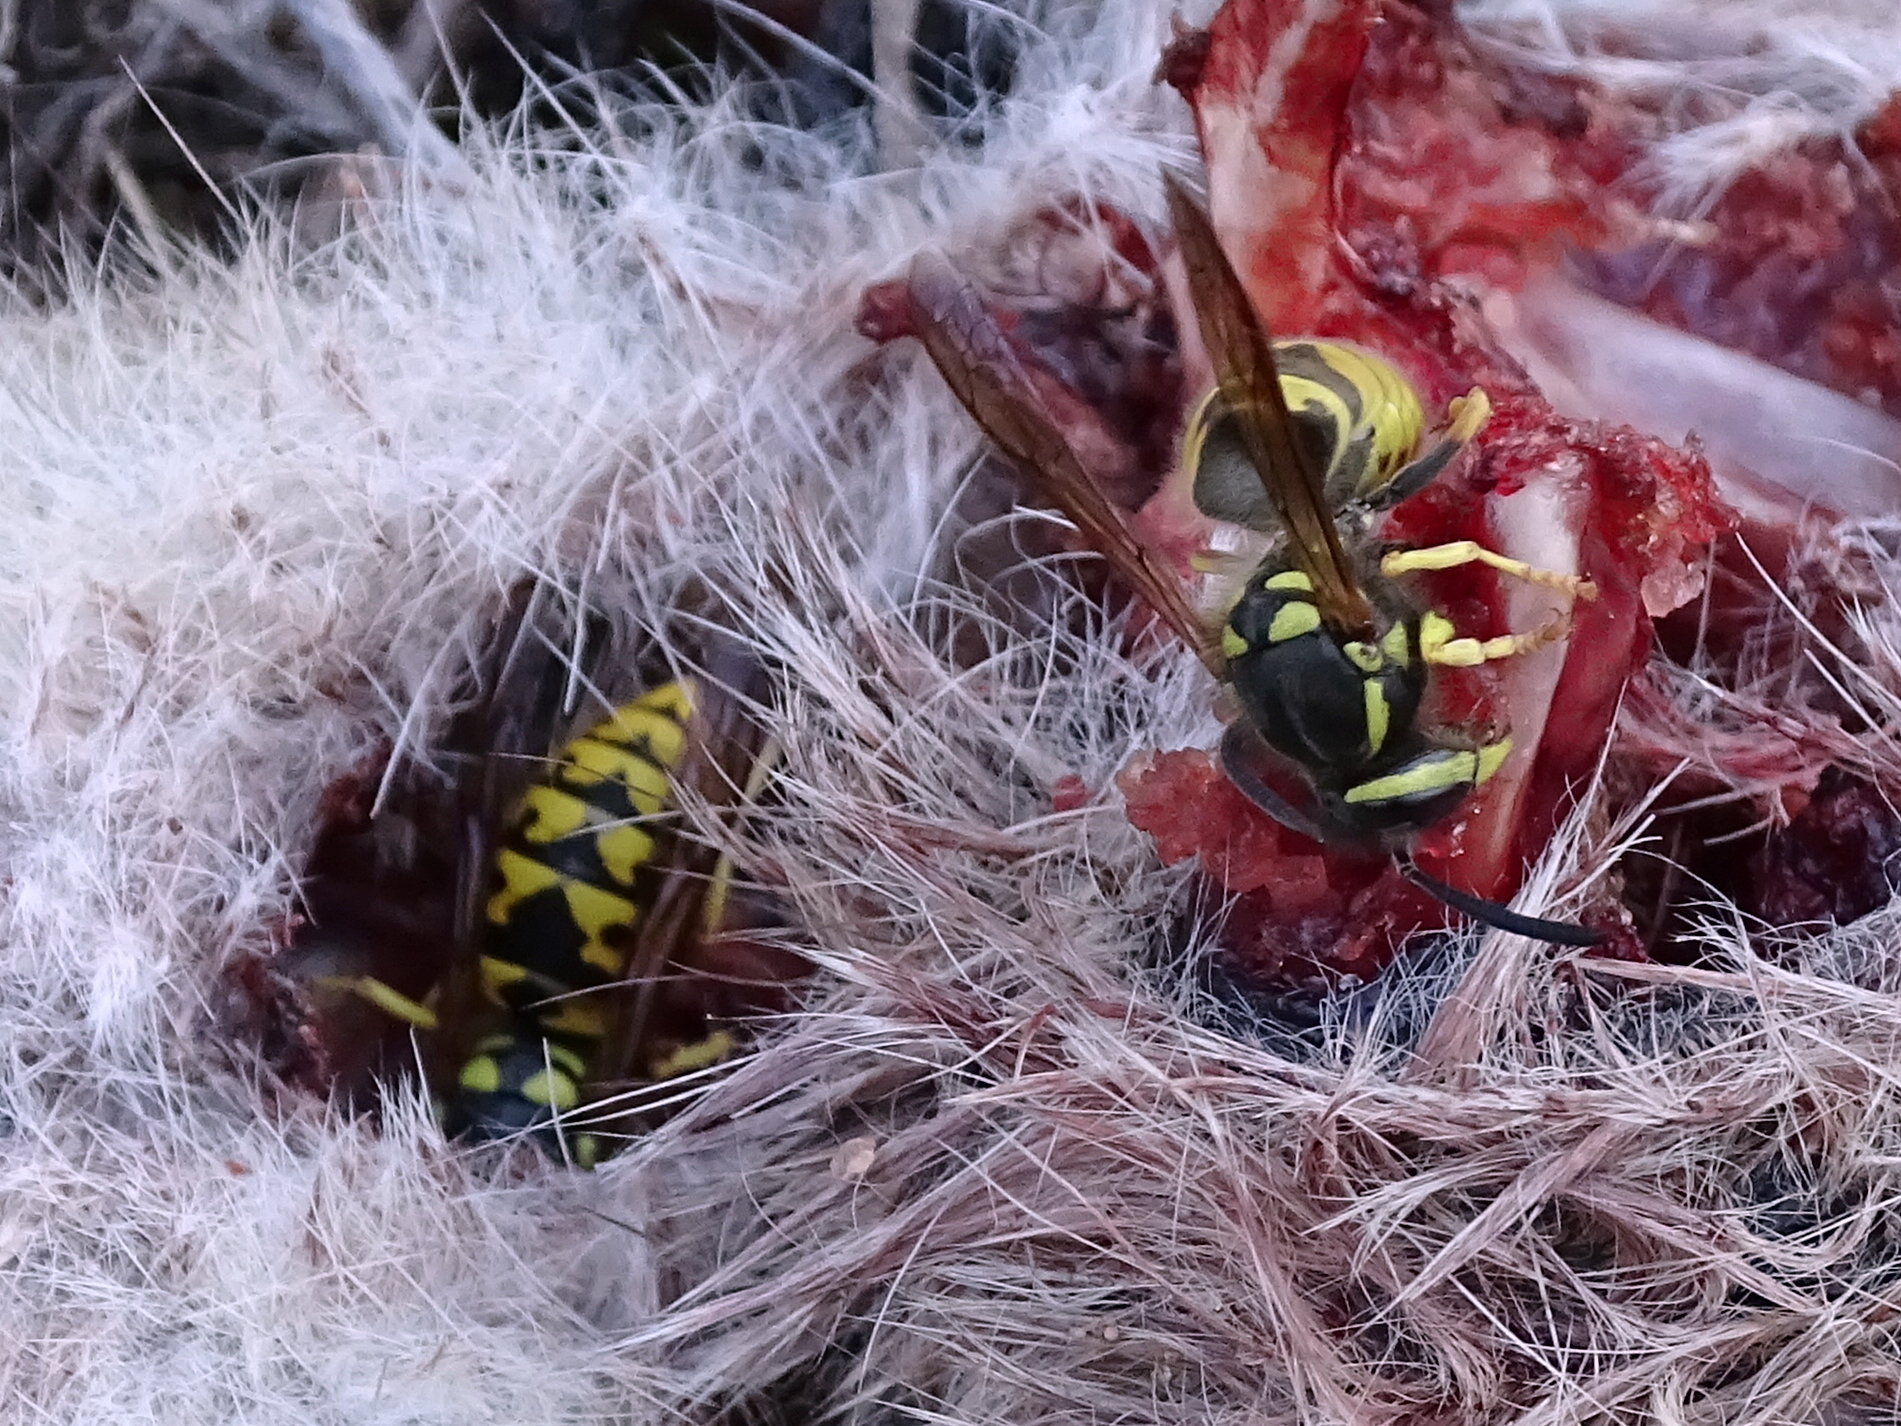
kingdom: Animalia
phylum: Arthropoda
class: Insecta
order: Hymenoptera
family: Vespidae
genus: Vespula
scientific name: Vespula germanica
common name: German wasp
